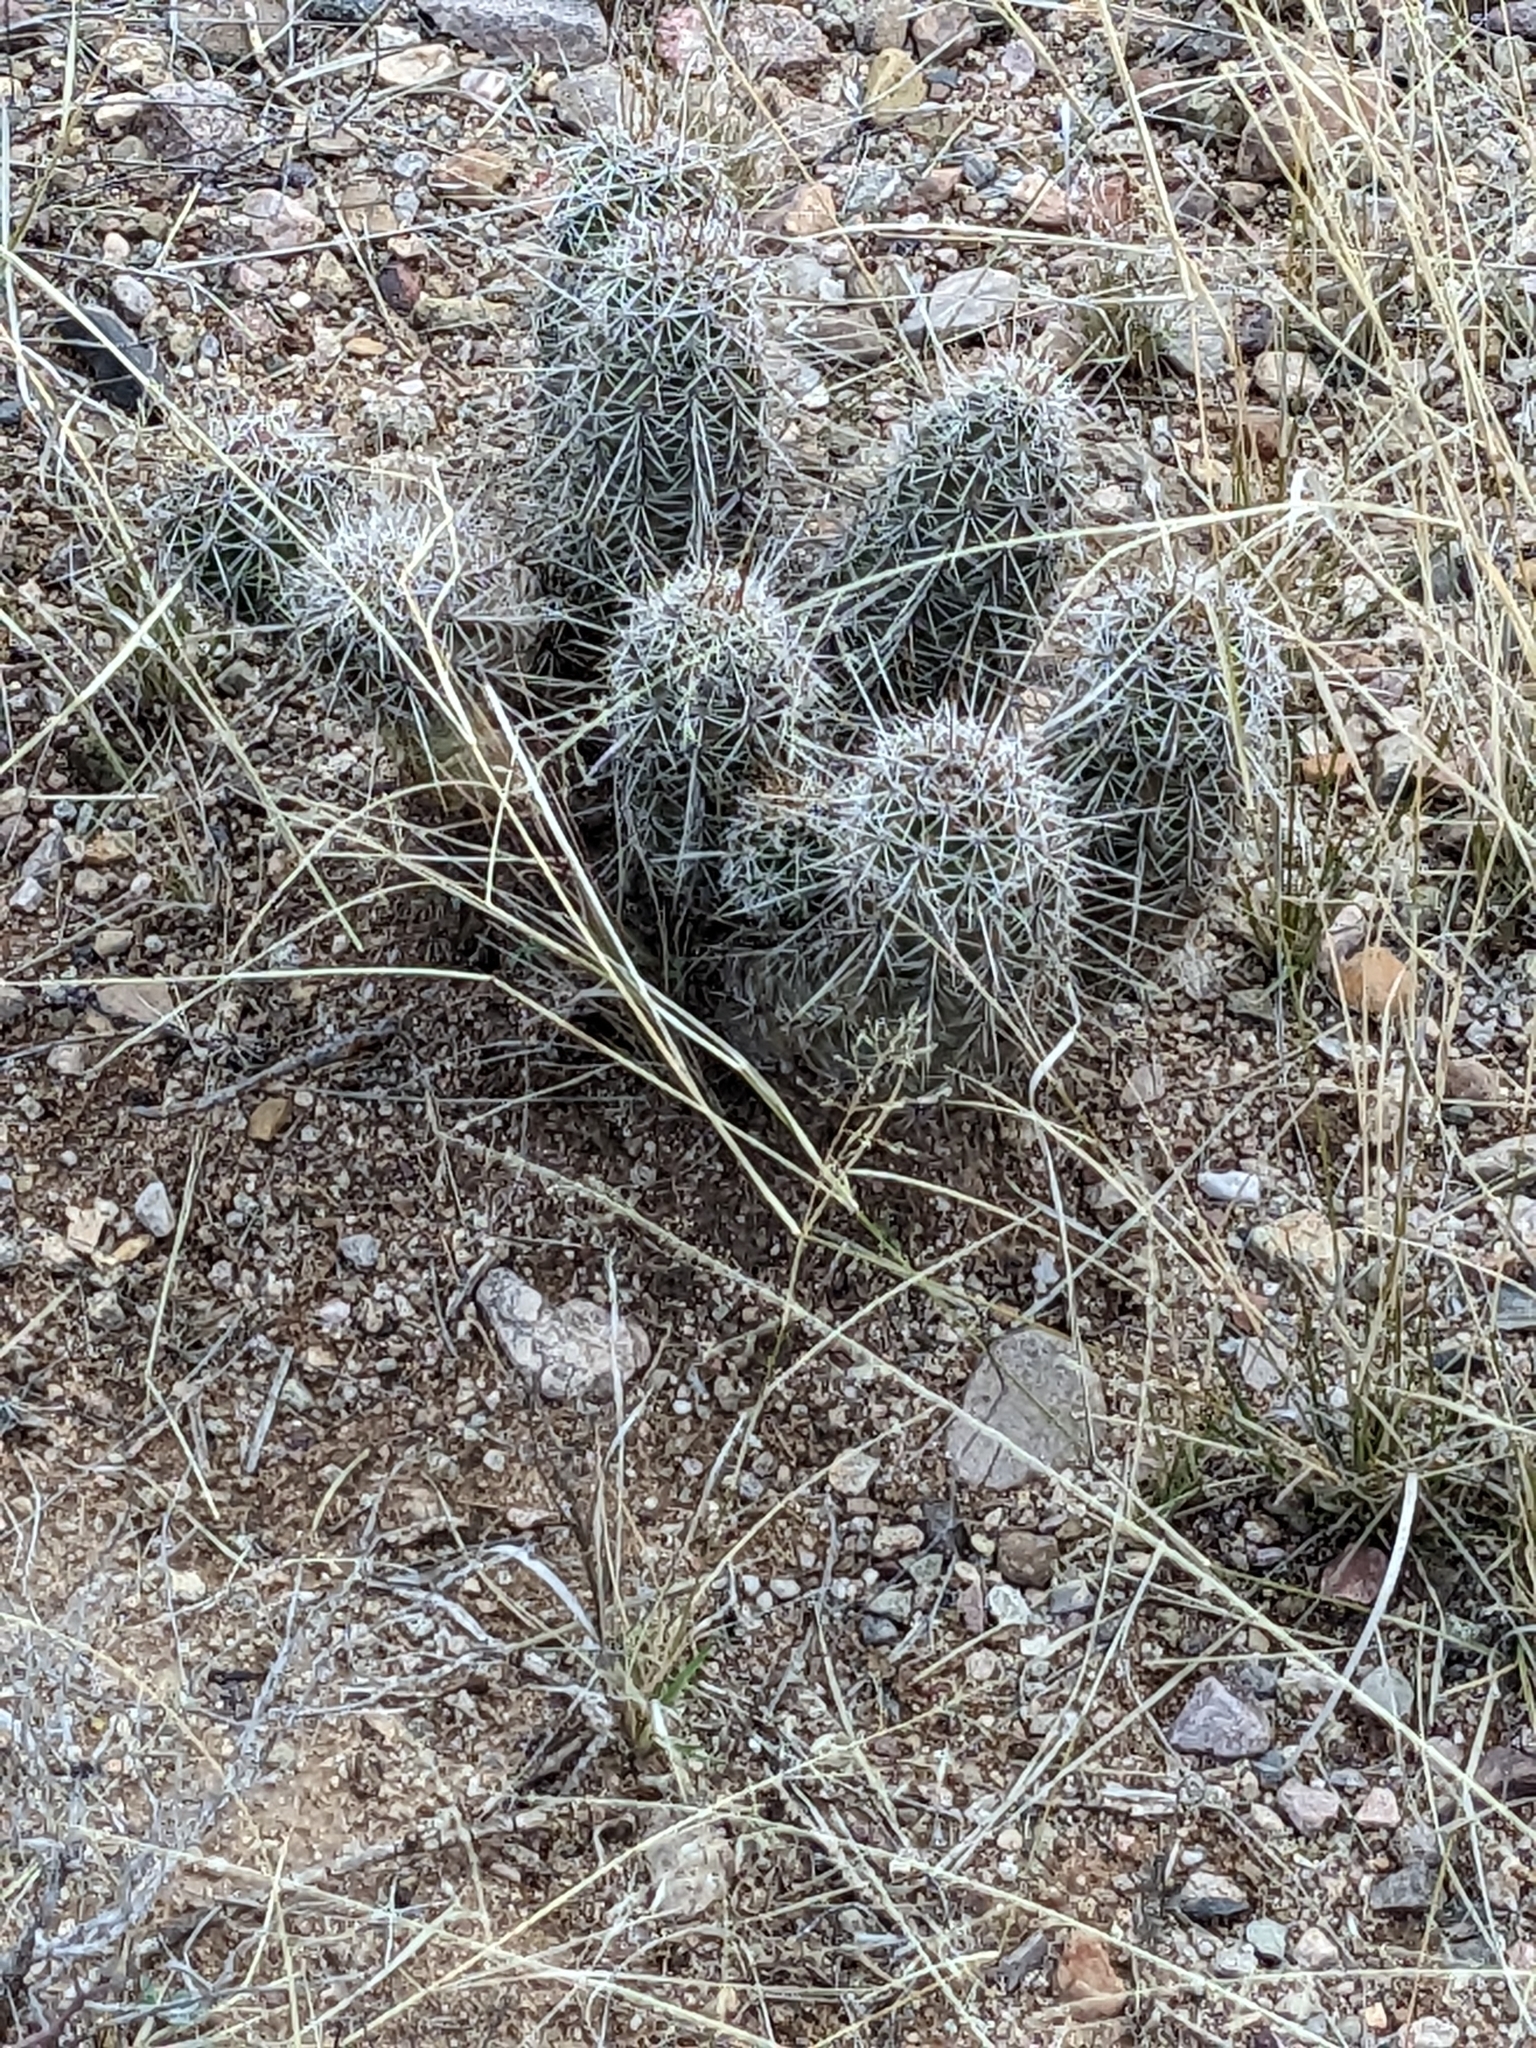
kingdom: Plantae
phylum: Tracheophyta
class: Magnoliopsida
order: Caryophyllales
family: Cactaceae
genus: Echinocereus
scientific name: Echinocereus fasciculatus
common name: Bundle hedgehog
